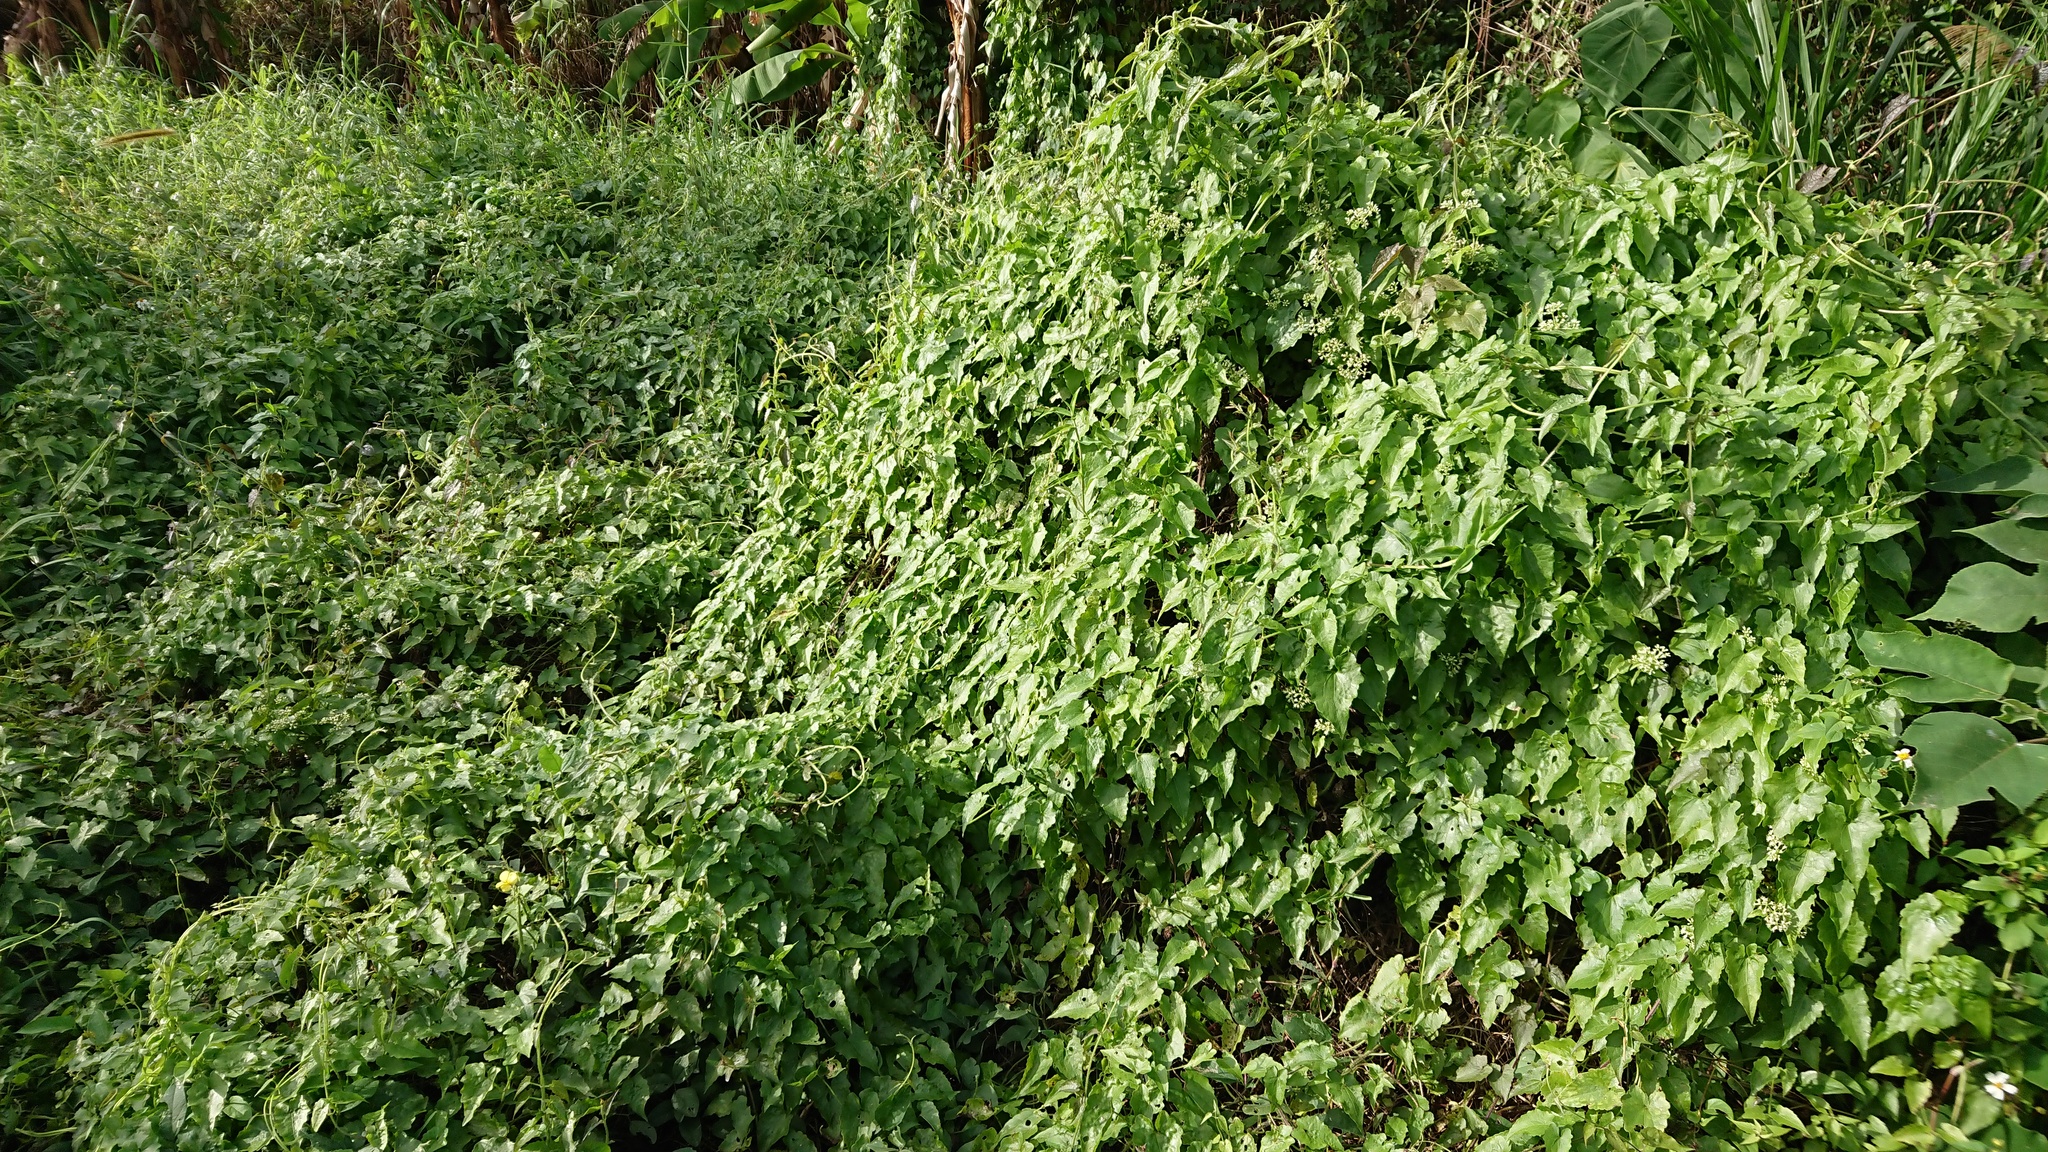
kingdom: Plantae
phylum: Tracheophyta
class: Magnoliopsida
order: Asterales
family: Asteraceae
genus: Mikania
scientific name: Mikania micrantha
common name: Mile-a-minute
